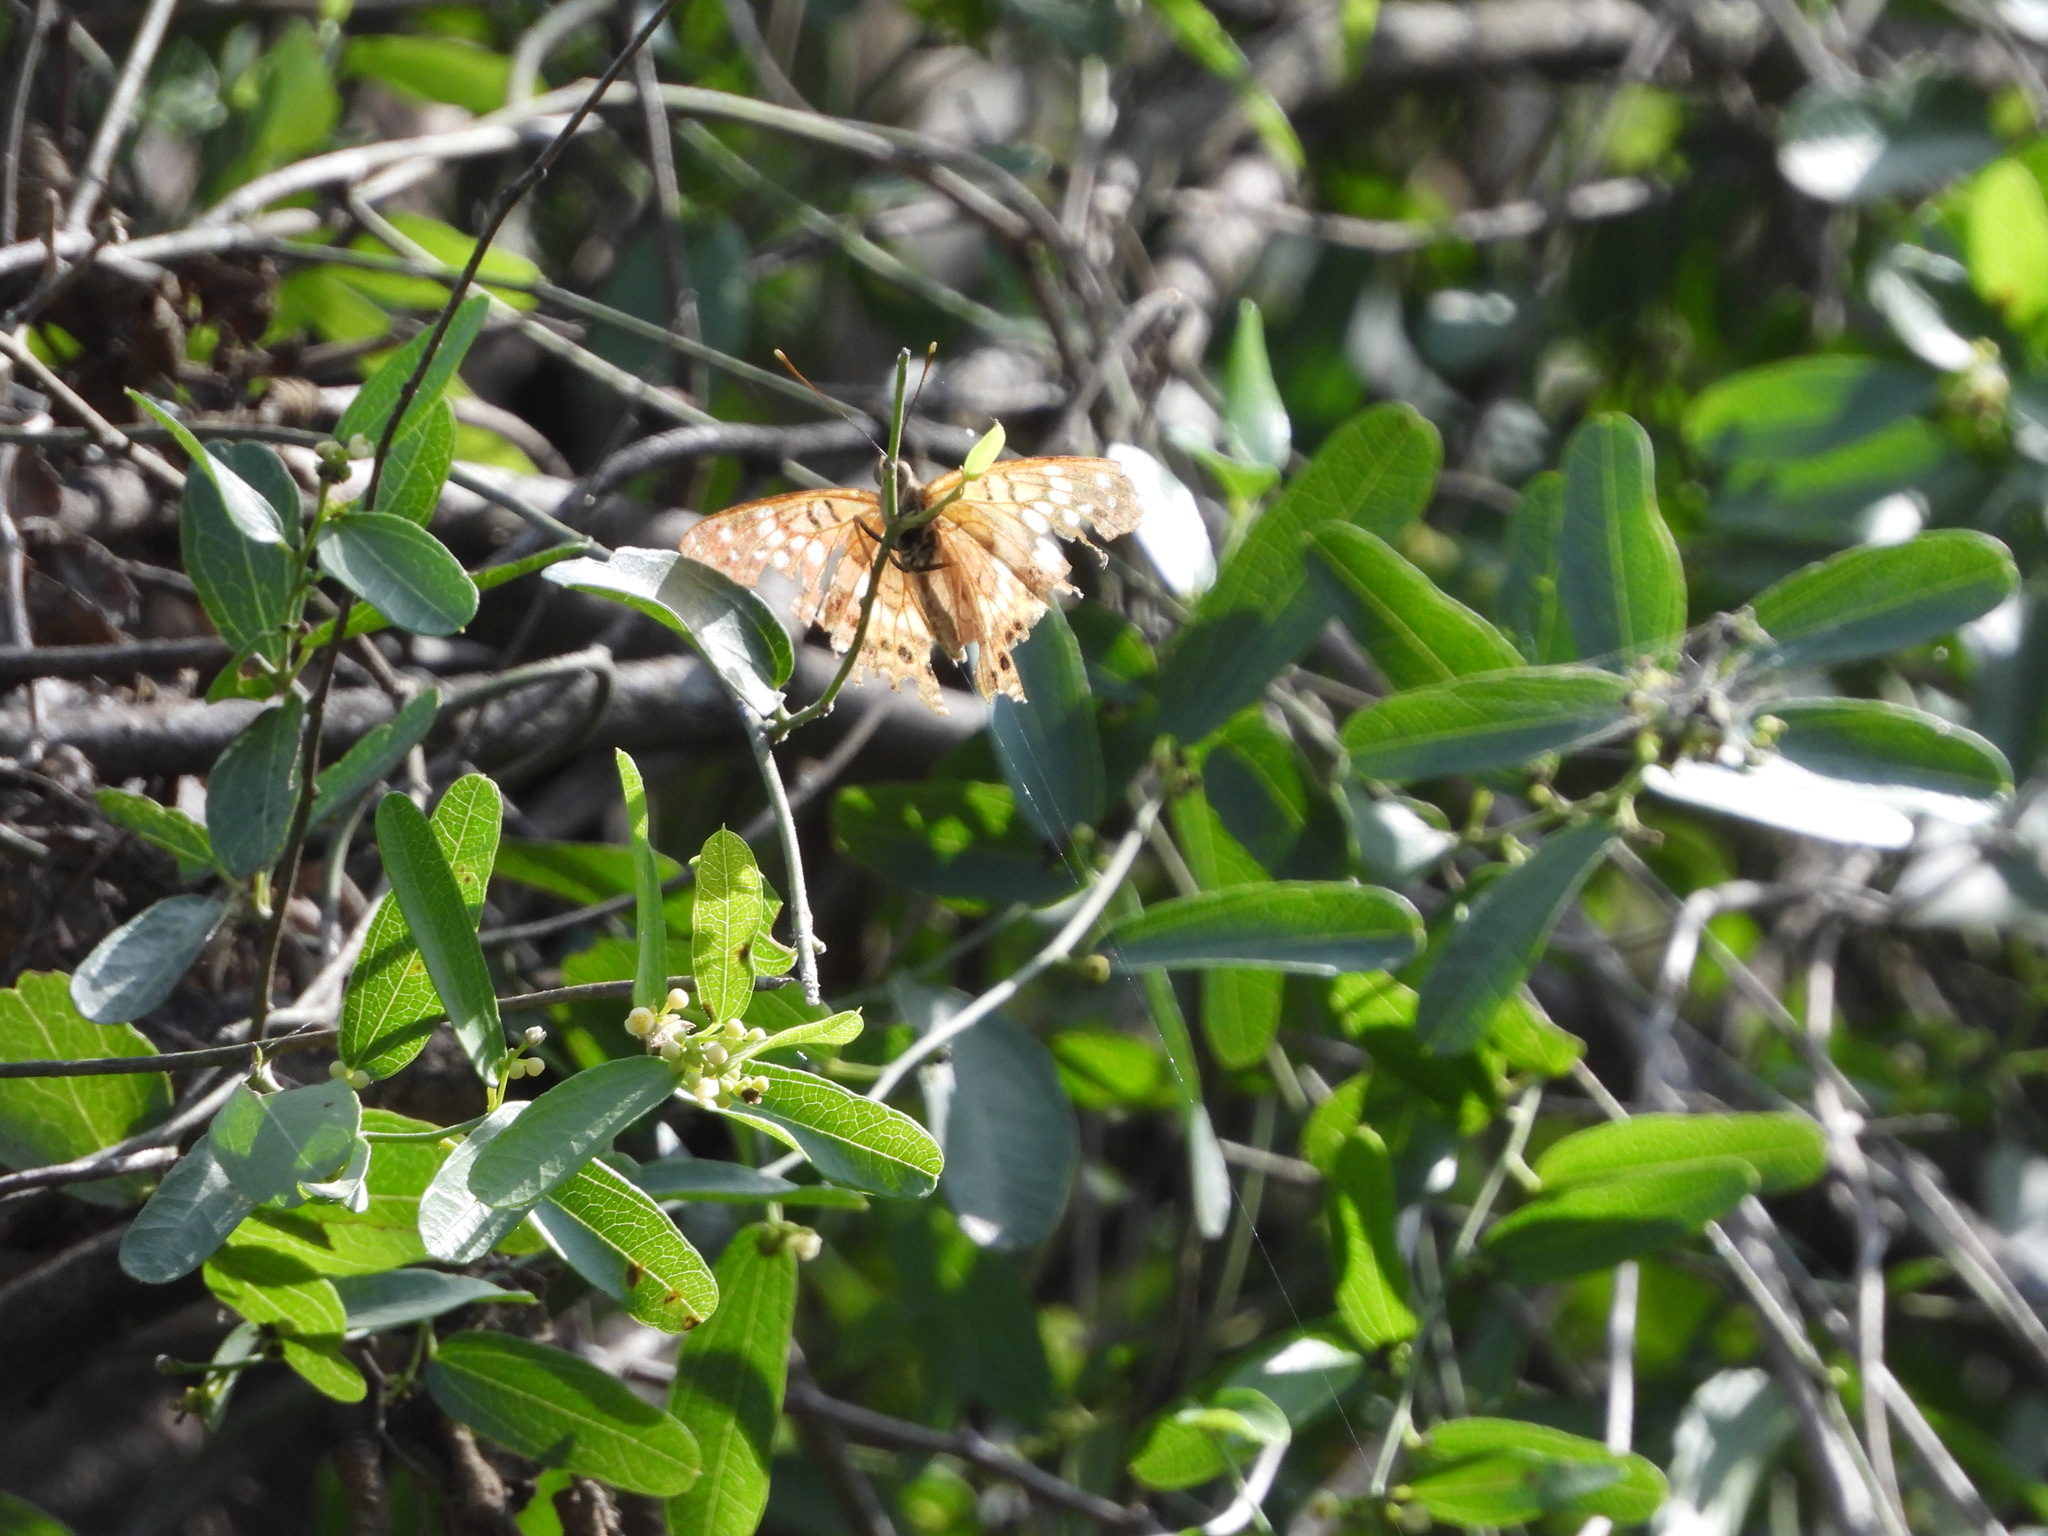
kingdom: Plantae
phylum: Tracheophyta
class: Magnoliopsida
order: Ranunculales
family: Menispermaceae
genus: Cocculus
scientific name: Cocculus diversifolius
